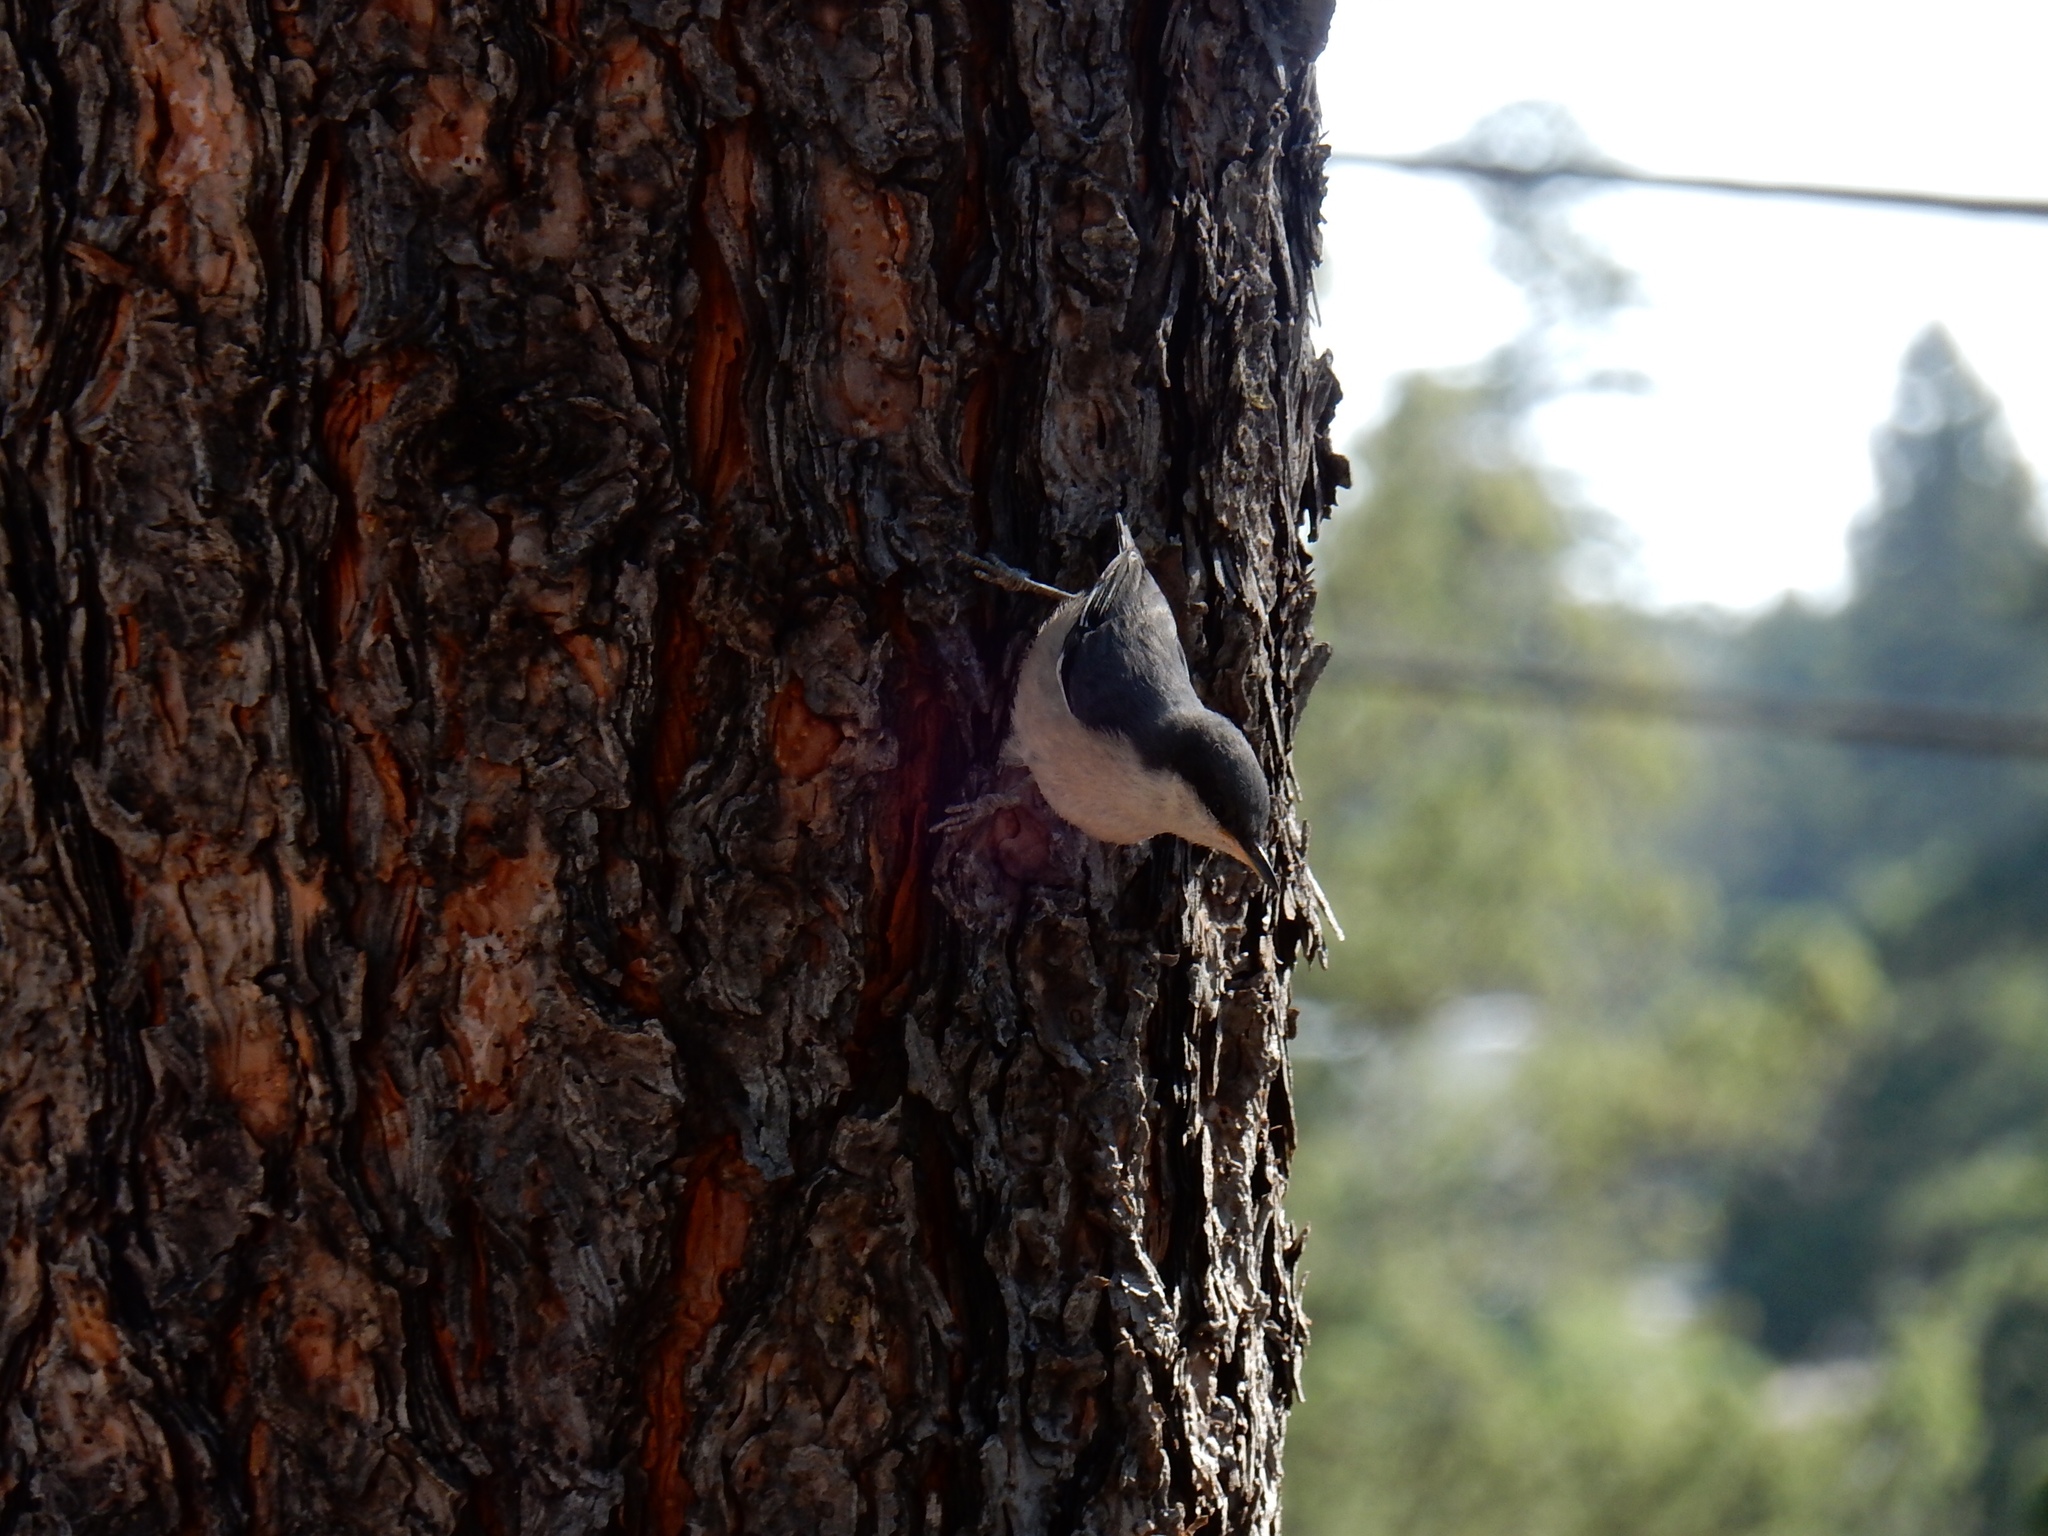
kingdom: Animalia
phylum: Chordata
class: Aves
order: Passeriformes
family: Sittidae
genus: Sitta
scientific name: Sitta pygmaea
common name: Pygmy nuthatch
